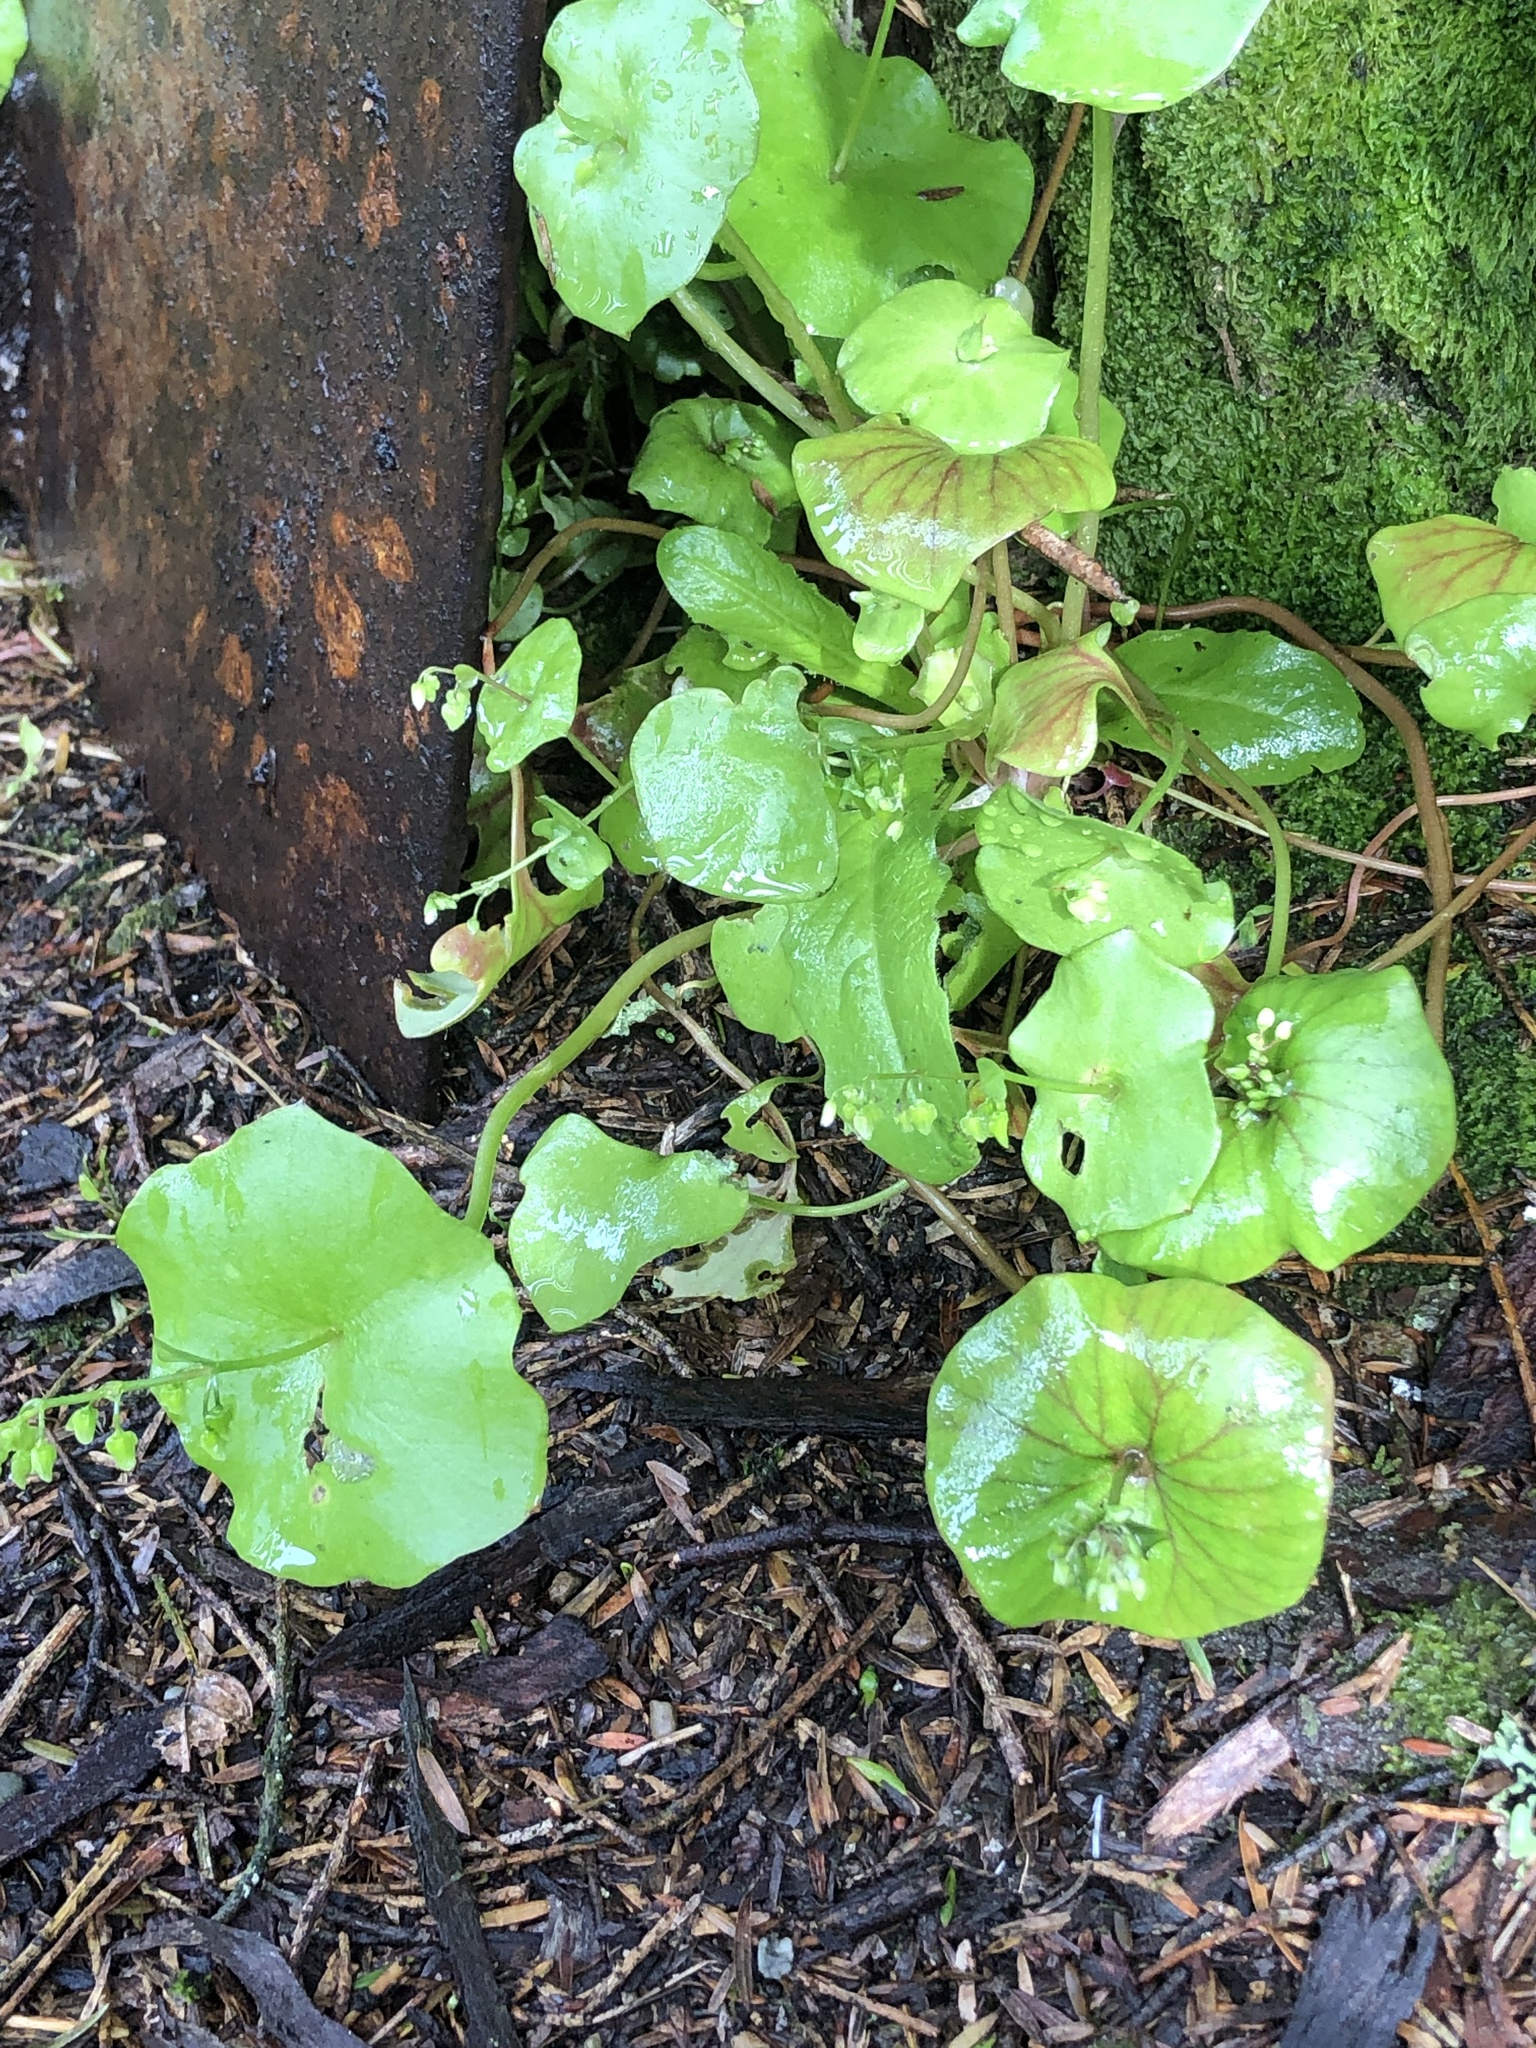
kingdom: Plantae
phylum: Tracheophyta
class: Magnoliopsida
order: Caryophyllales
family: Montiaceae
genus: Claytonia
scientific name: Claytonia perfoliata
